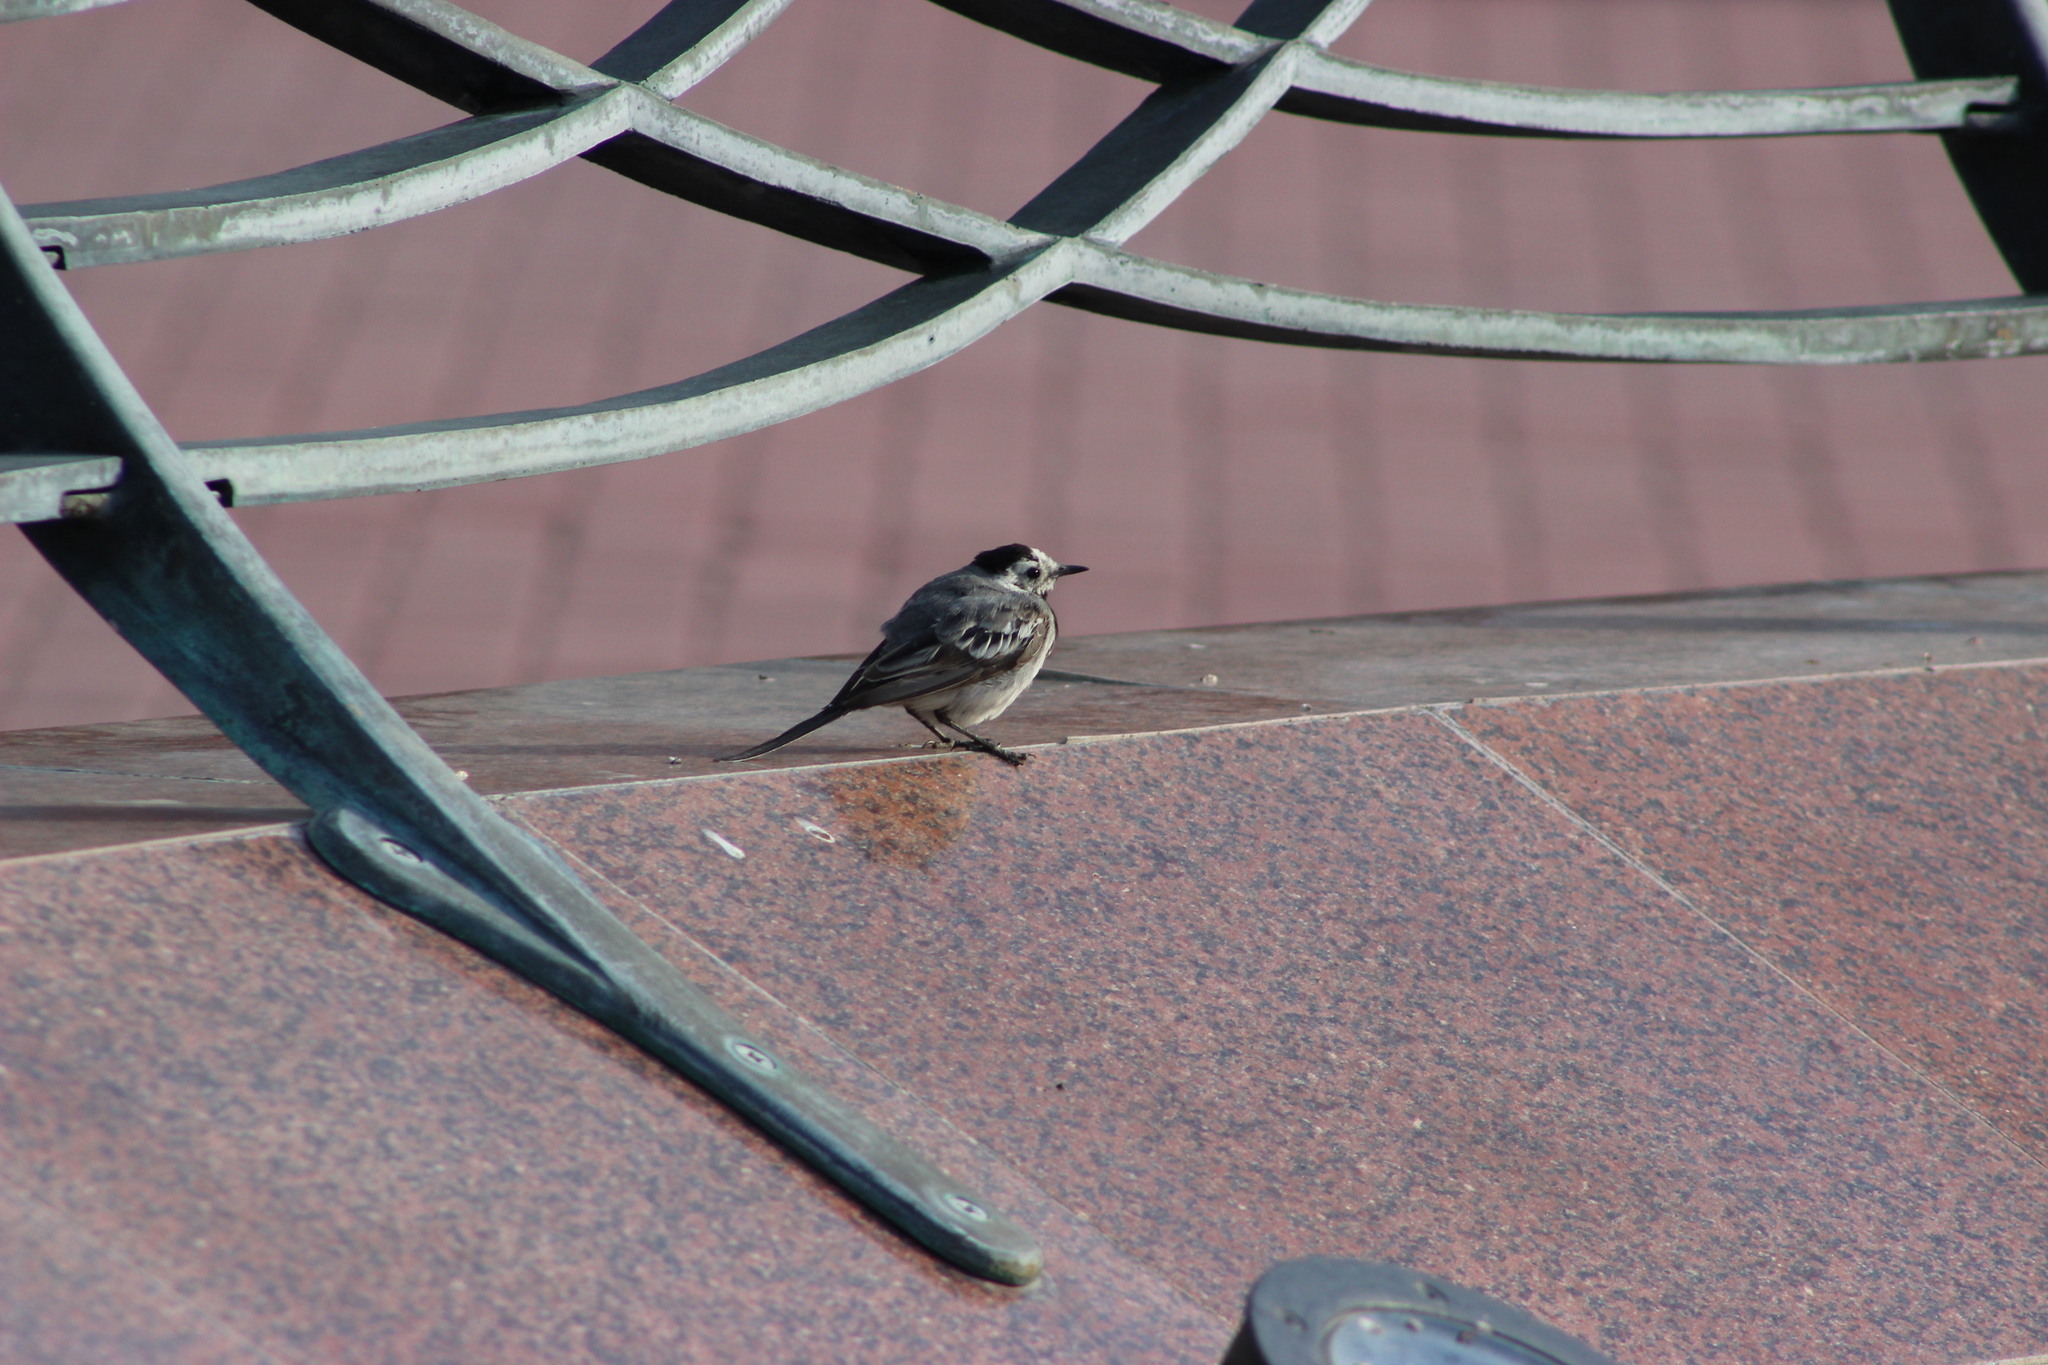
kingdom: Animalia
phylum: Chordata
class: Aves
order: Passeriformes
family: Motacillidae
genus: Motacilla
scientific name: Motacilla alba
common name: White wagtail
